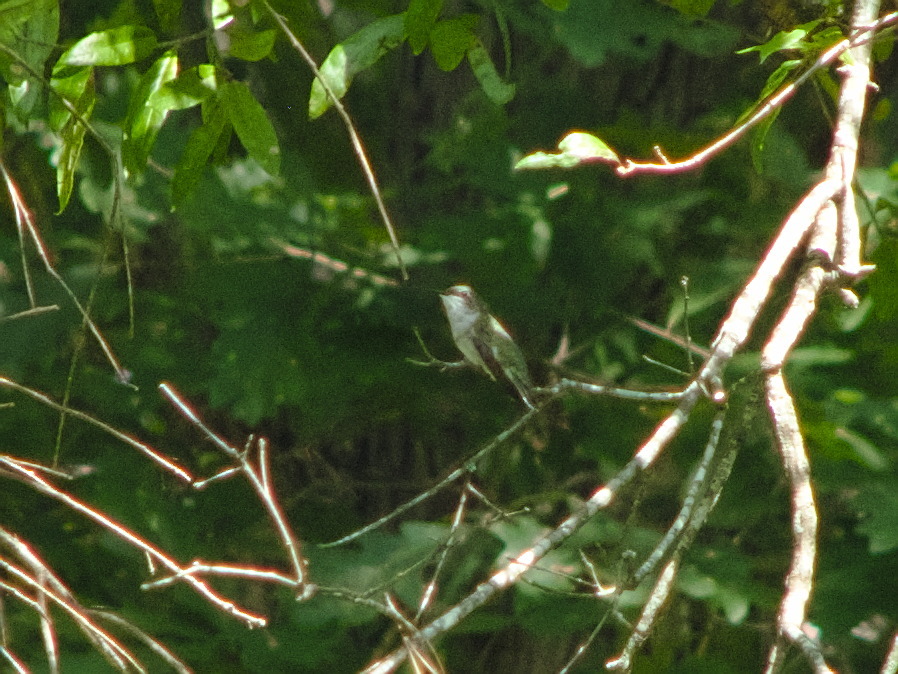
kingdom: Animalia
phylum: Chordata
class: Aves
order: Apodiformes
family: Trochilidae
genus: Archilochus
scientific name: Archilochus colubris
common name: Ruby-throated hummingbird
